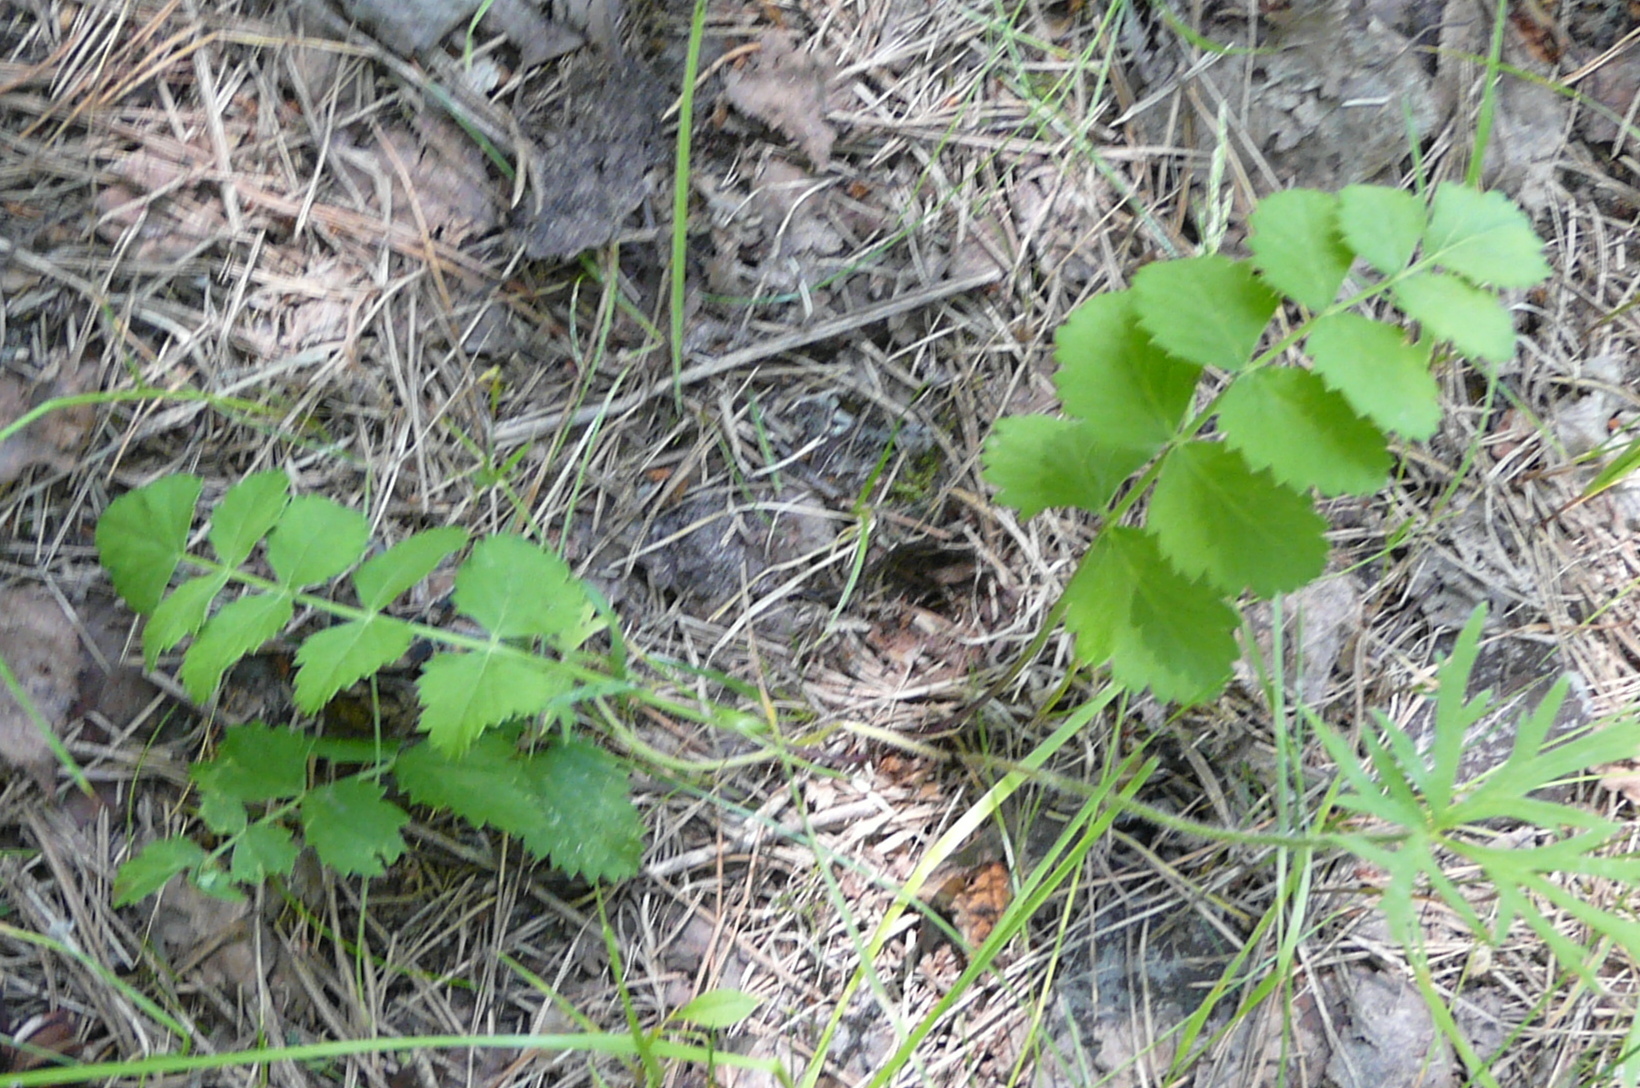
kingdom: Plantae
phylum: Tracheophyta
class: Magnoliopsida
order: Apiales
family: Apiaceae
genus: Pimpinella
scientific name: Pimpinella saxifraga
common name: Burnet-saxifrage
